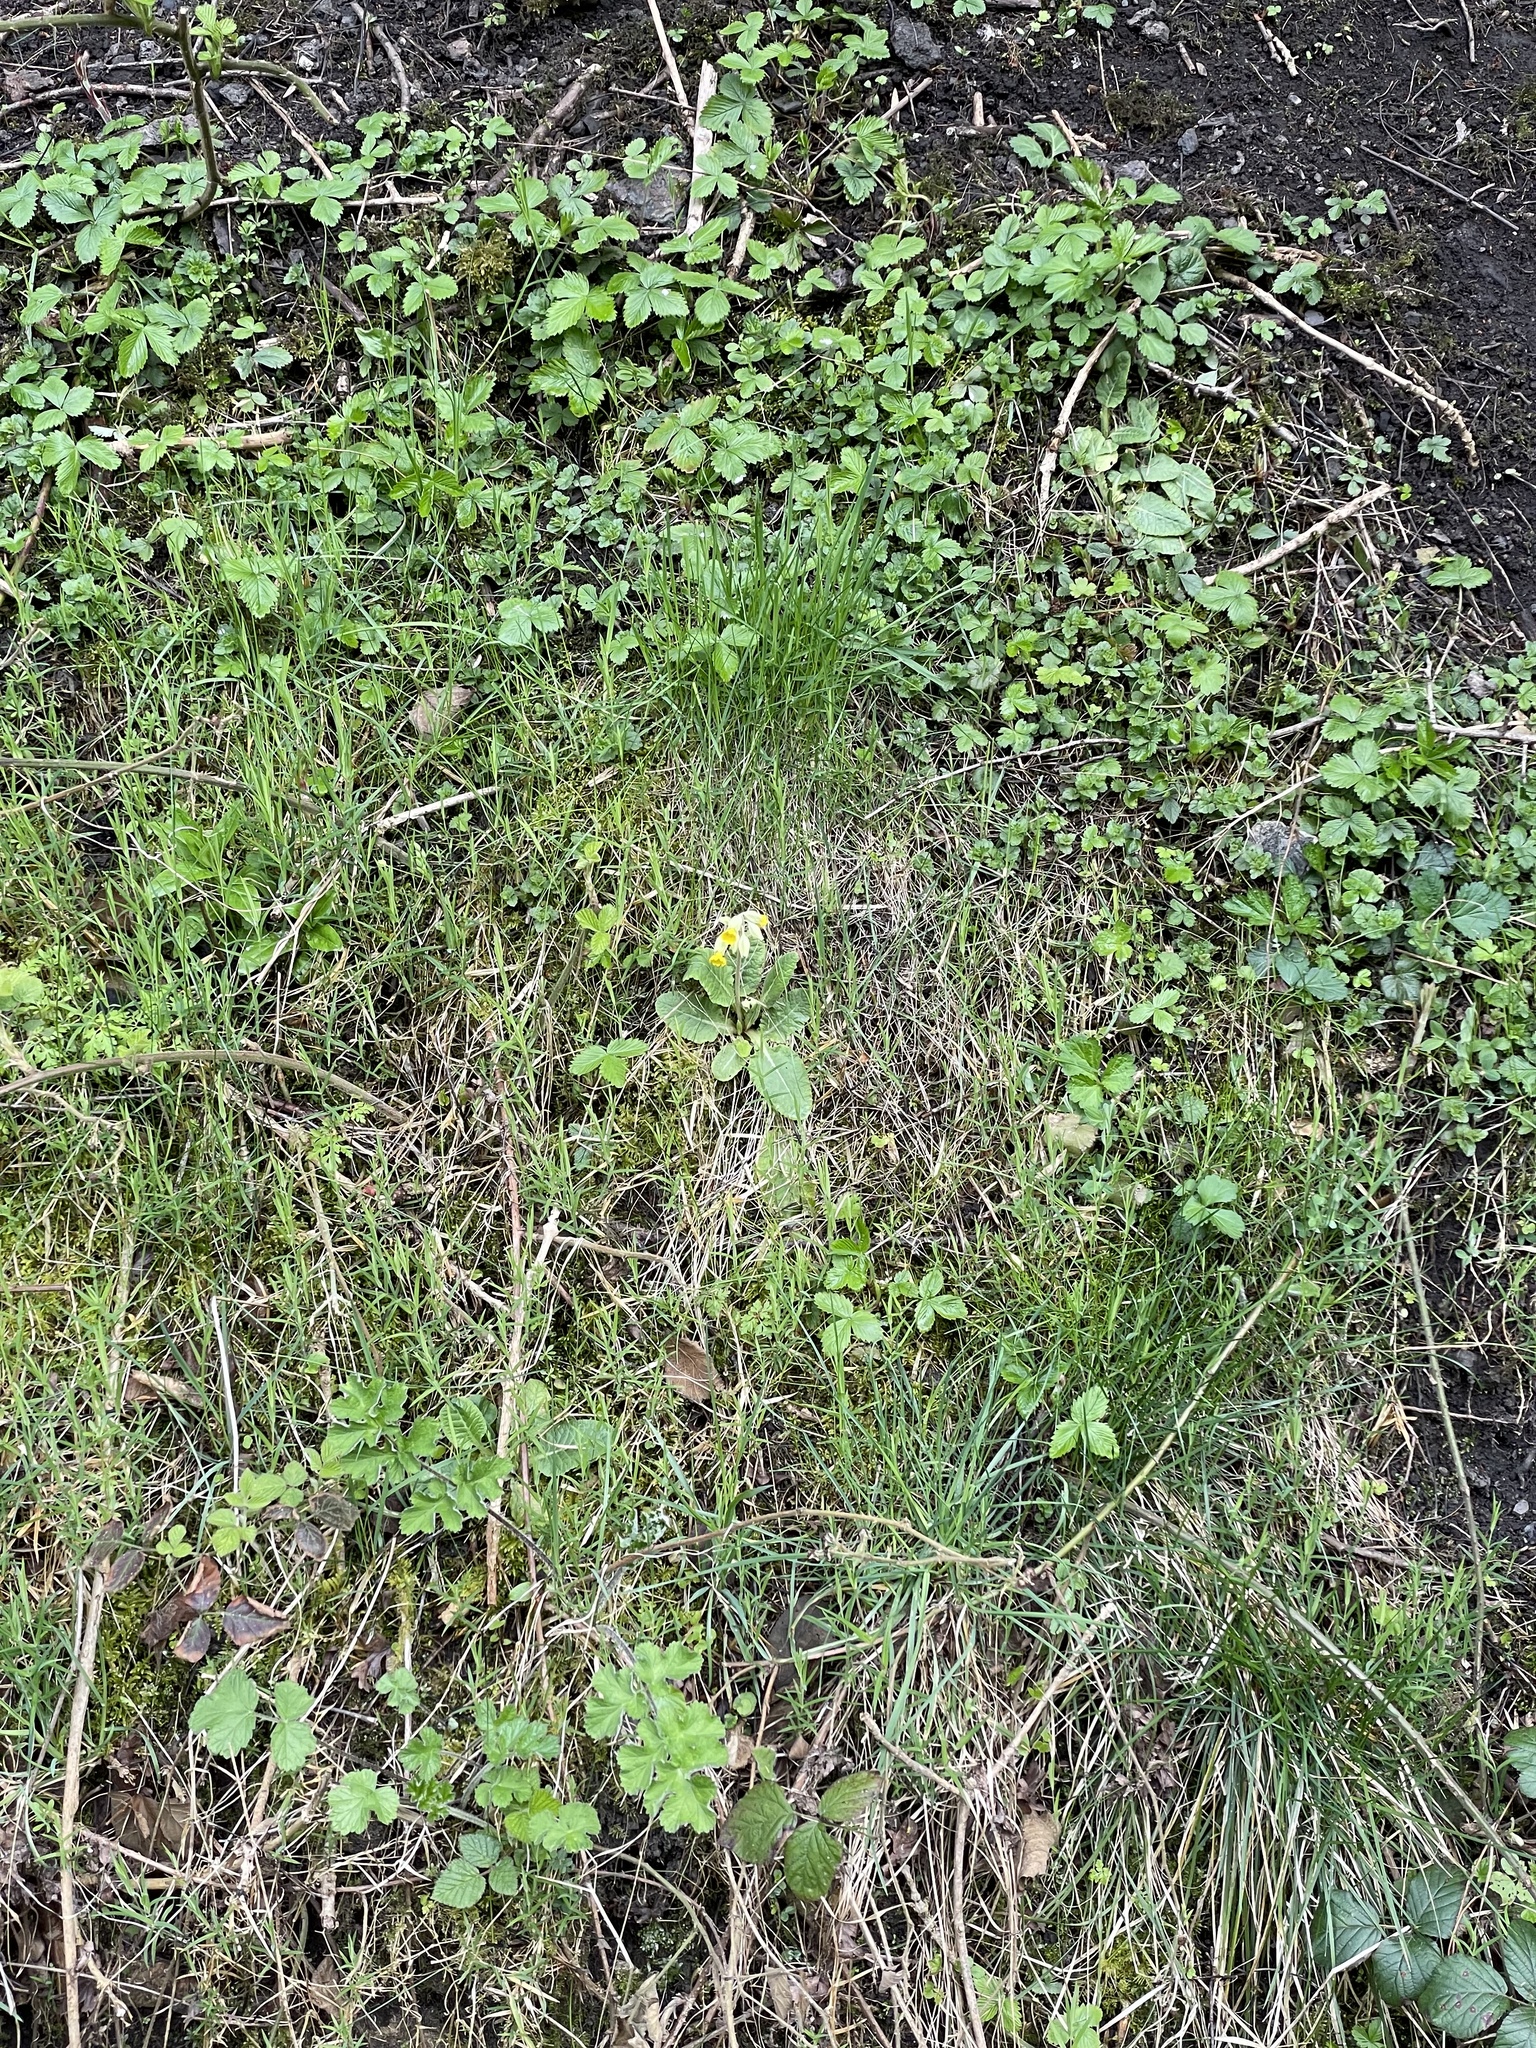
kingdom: Plantae
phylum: Tracheophyta
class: Magnoliopsida
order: Ericales
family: Primulaceae
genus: Primula
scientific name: Primula veris
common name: Cowslip
